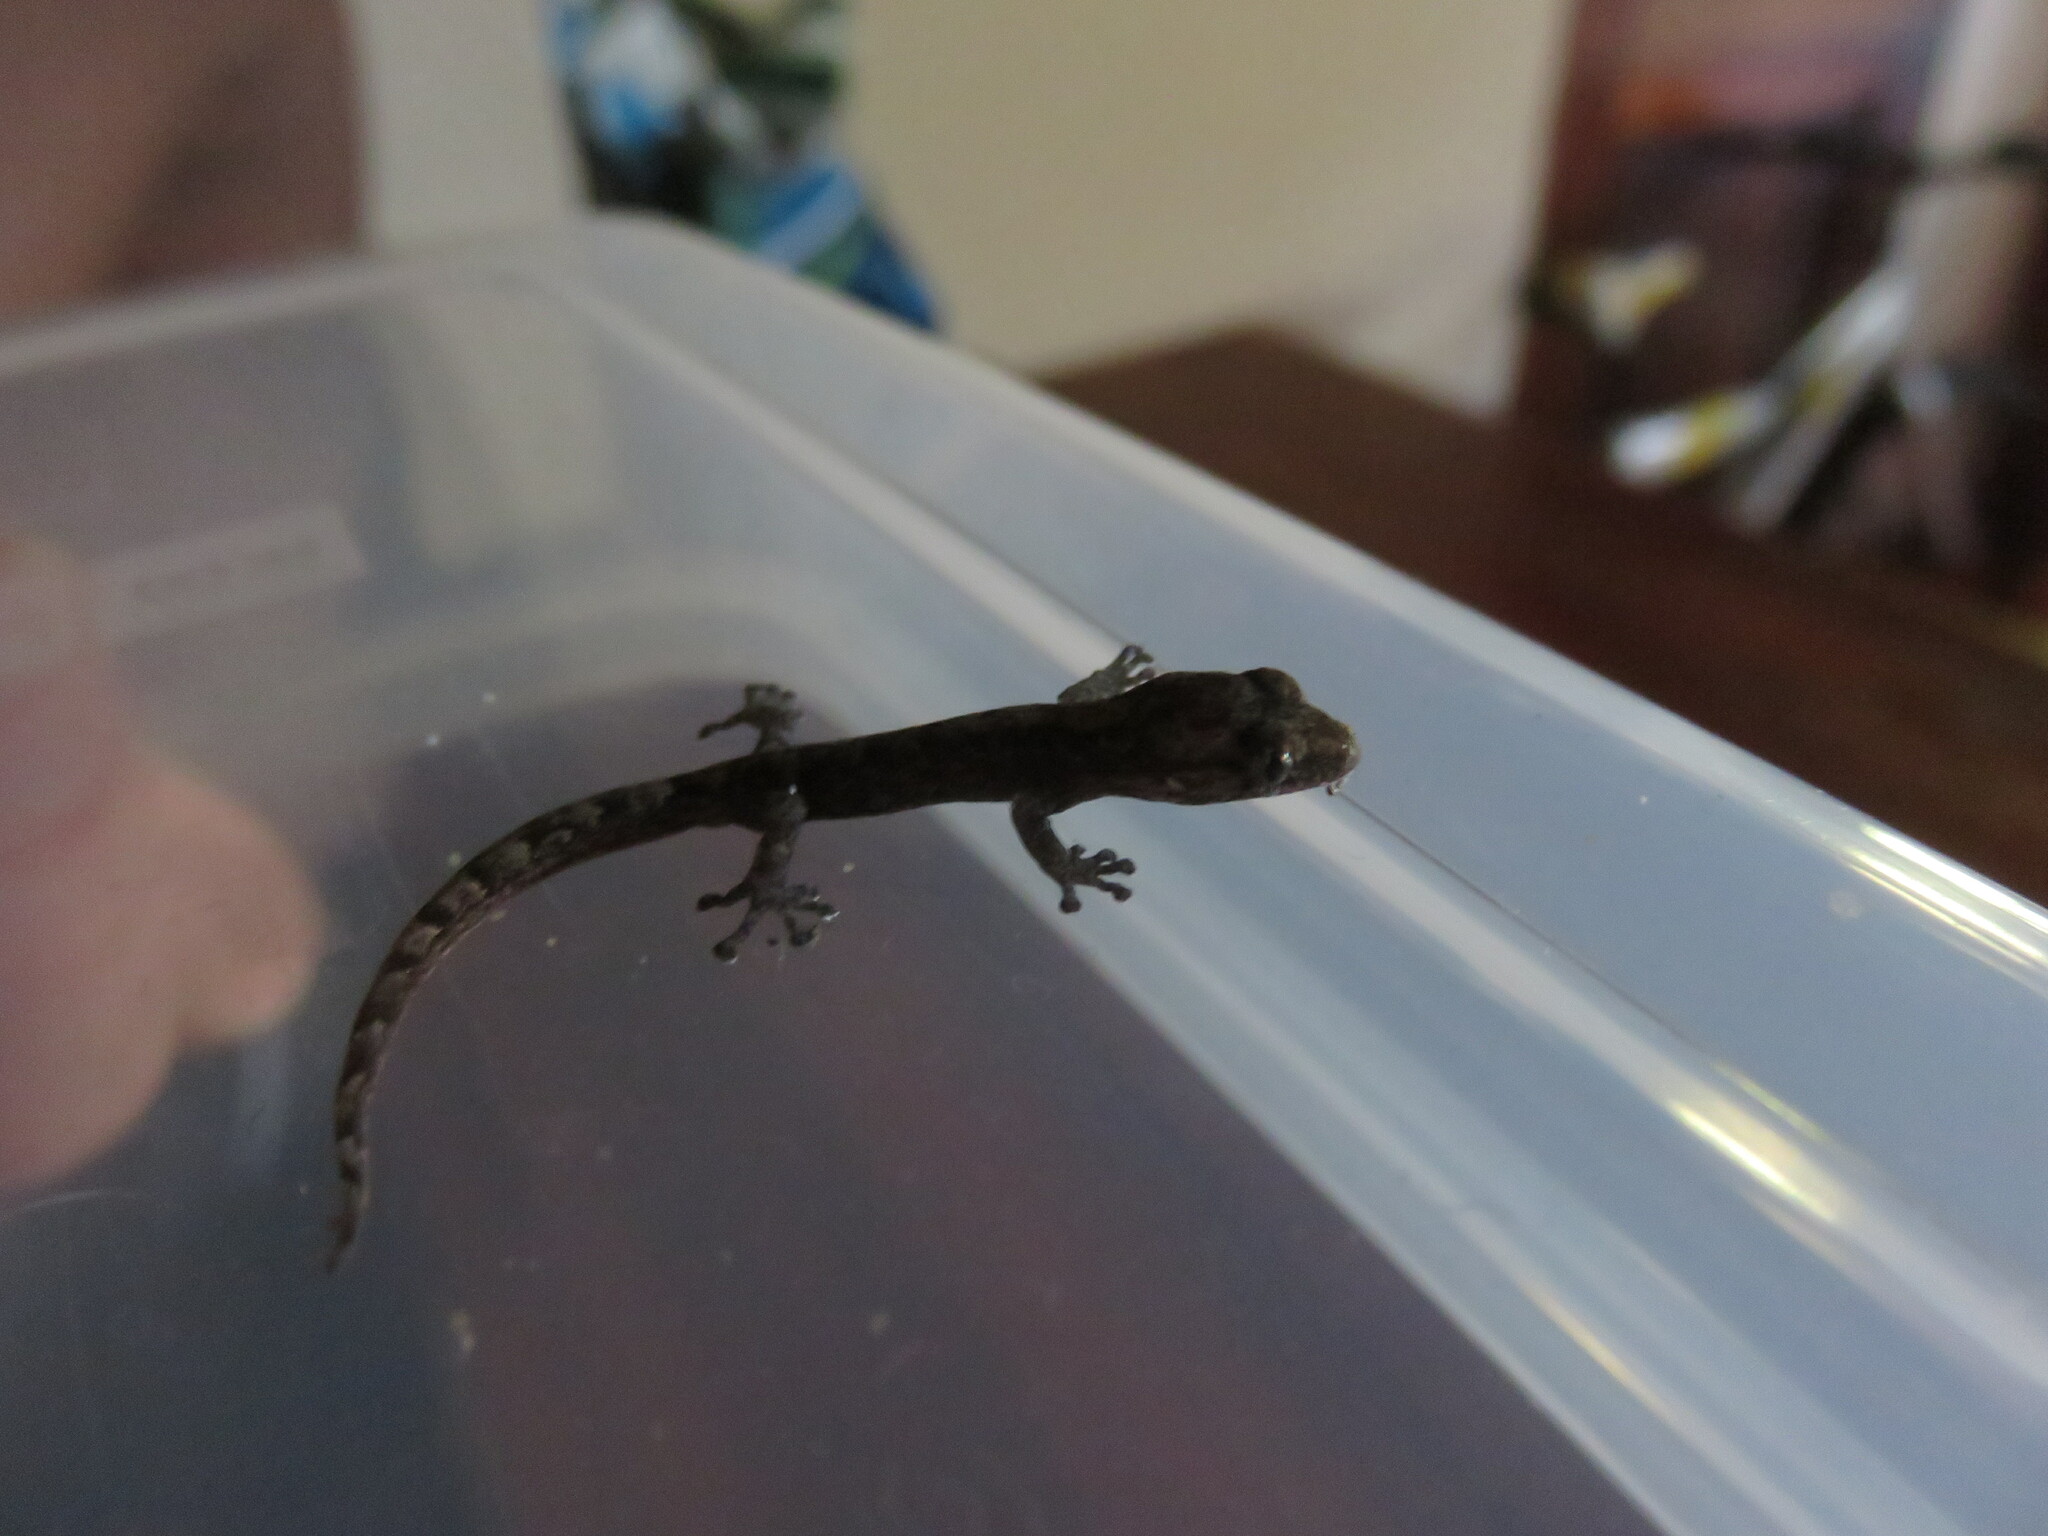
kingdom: Animalia
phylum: Chordata
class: Squamata
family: Gekkonidae
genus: Afrogecko
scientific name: Afrogecko porphyreus
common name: Marbled leaf-toed gecko
